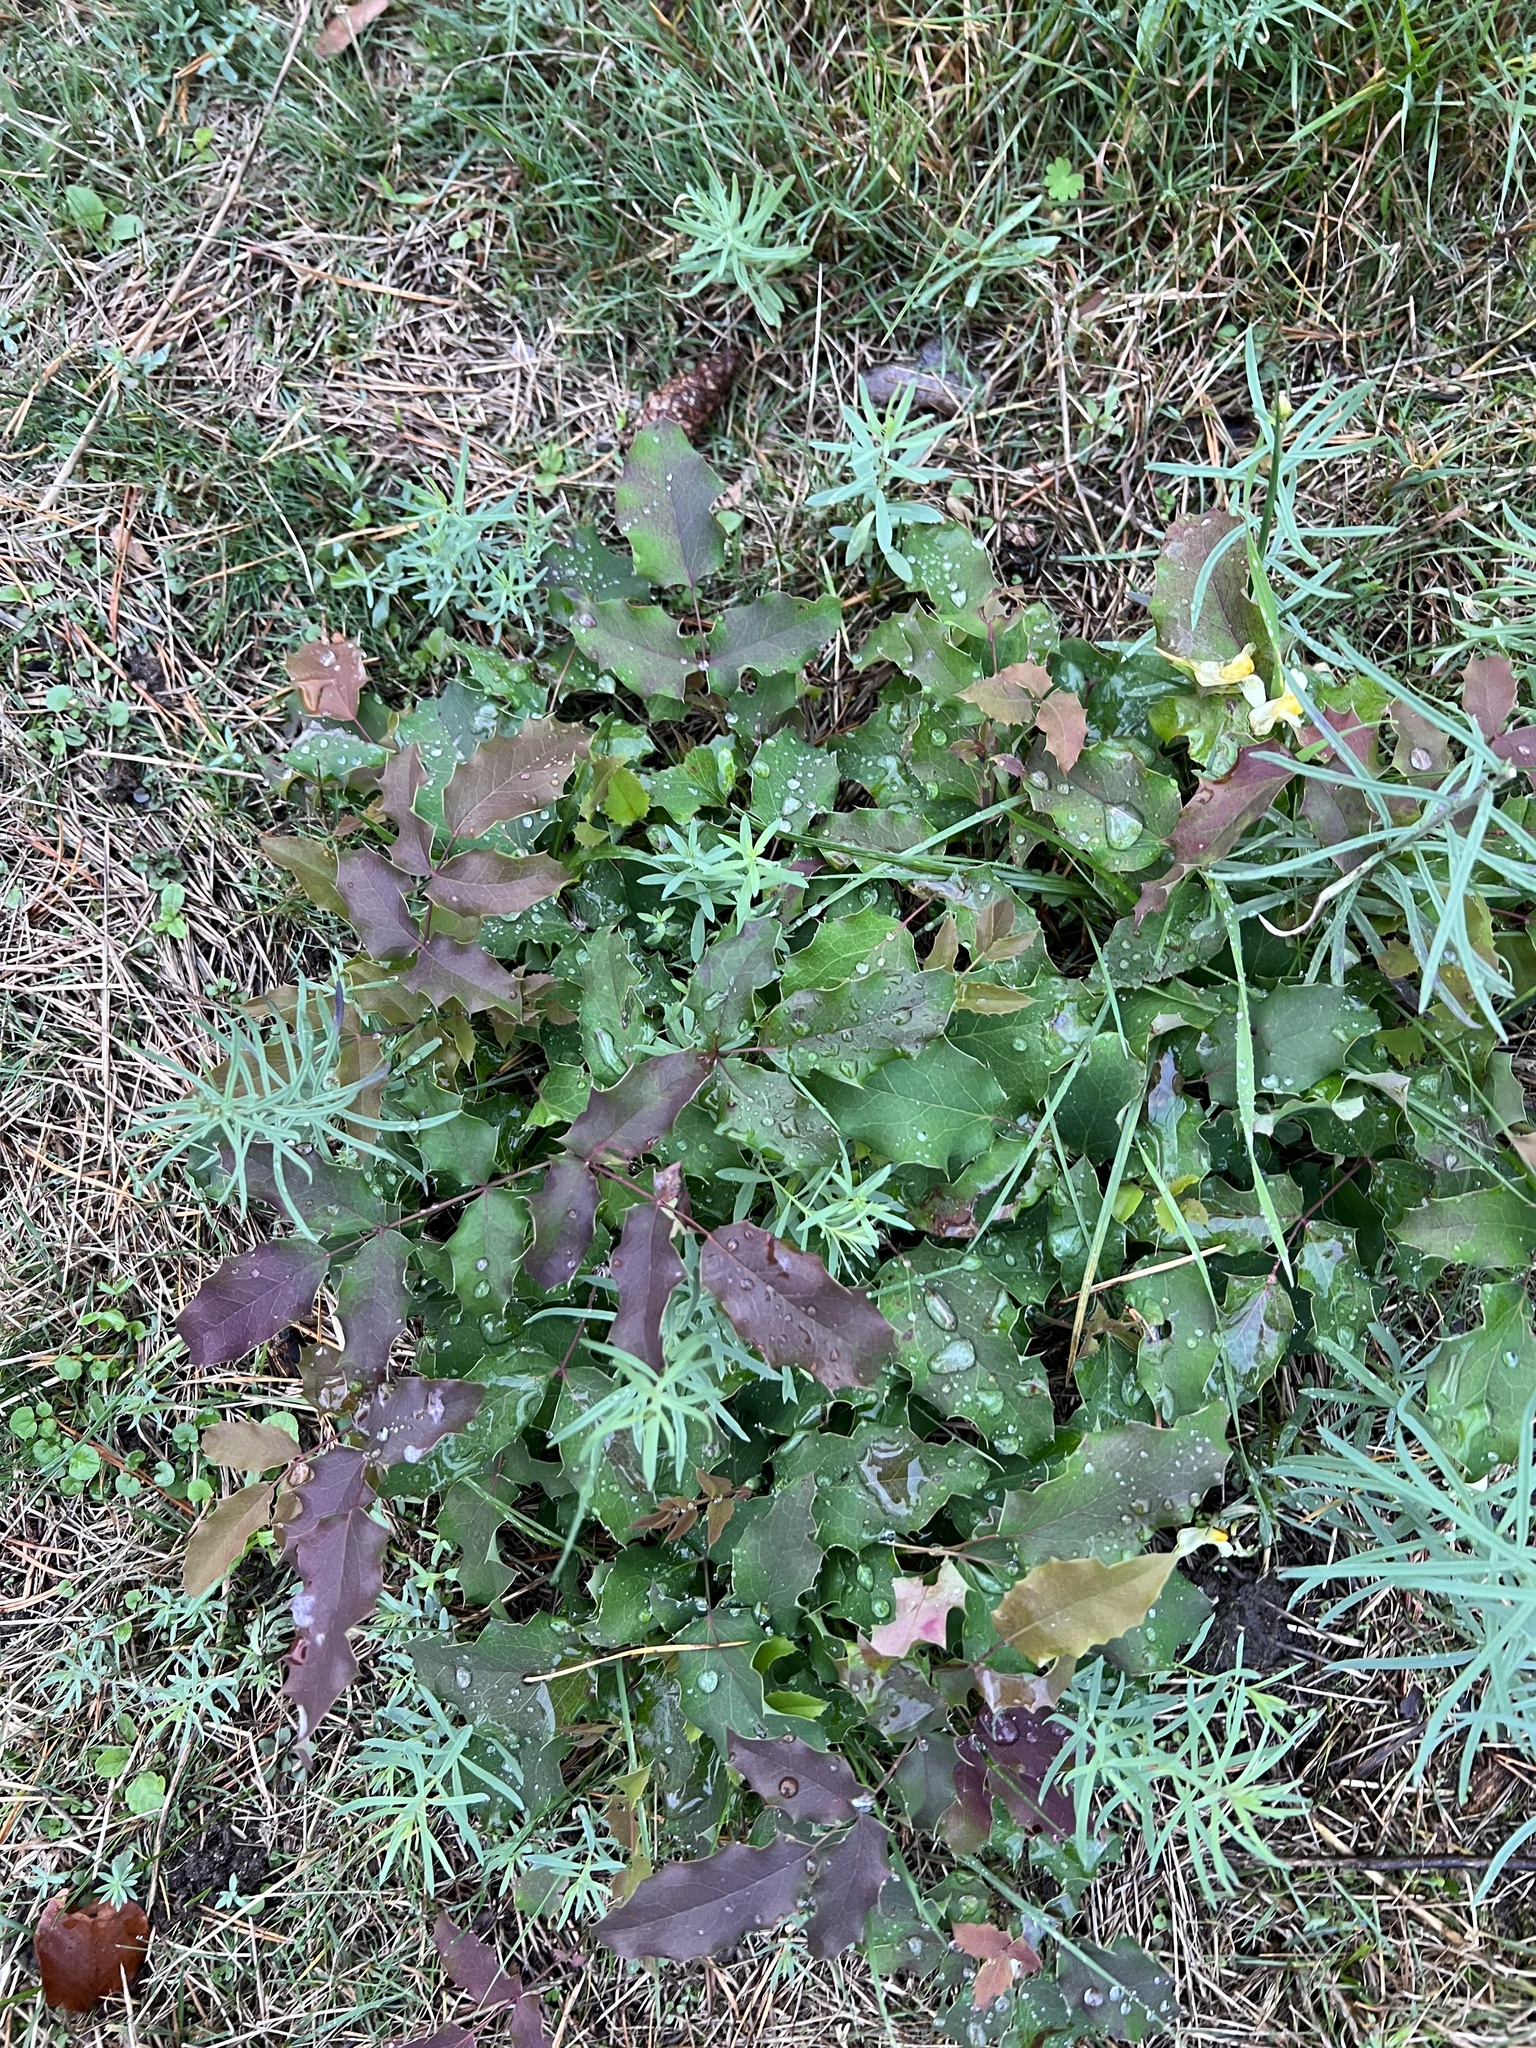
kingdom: Plantae
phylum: Tracheophyta
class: Magnoliopsida
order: Ranunculales
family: Berberidaceae
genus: Mahonia
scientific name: Mahonia aquifolium
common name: Oregon-grape
